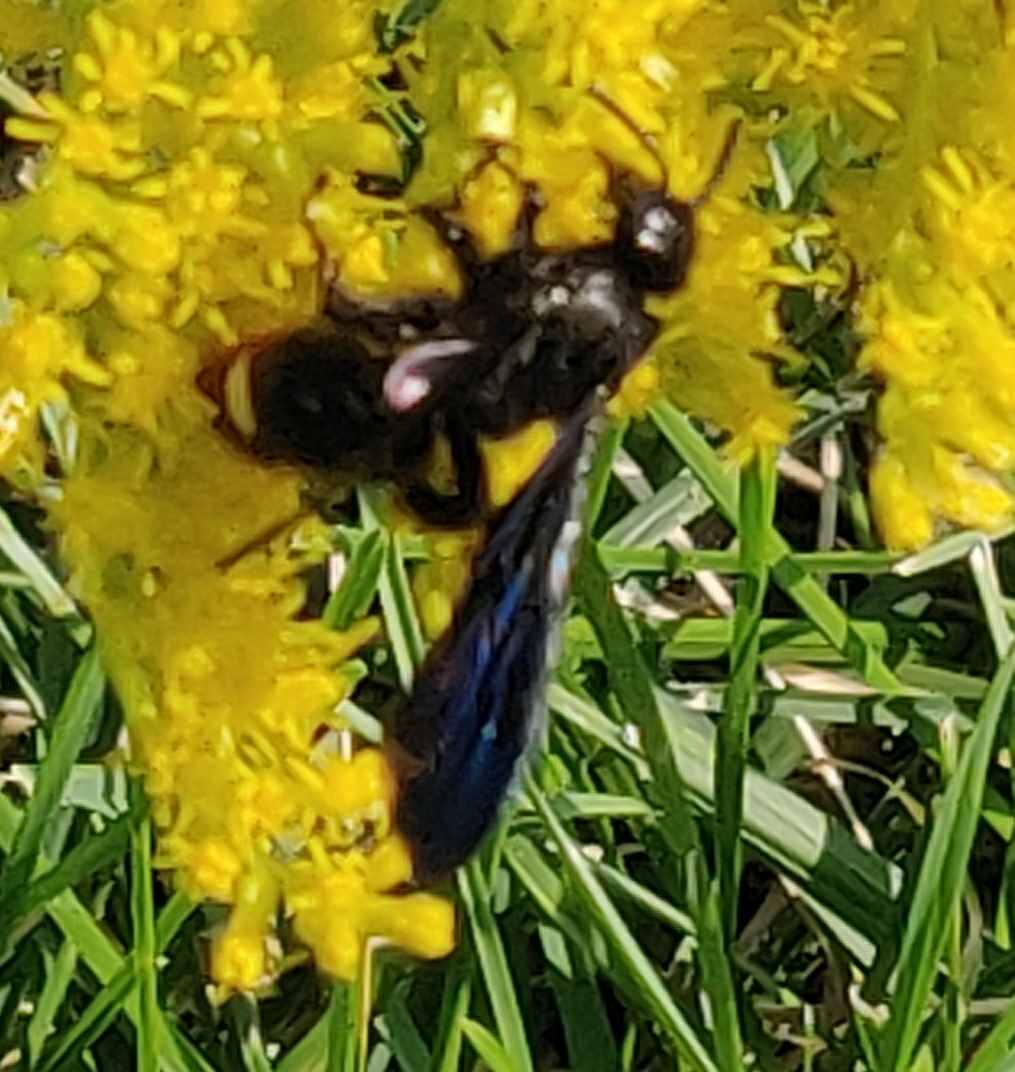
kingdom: Animalia
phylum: Arthropoda
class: Insecta
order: Hymenoptera
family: Scoliidae
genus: Scolia
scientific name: Scolia dubia
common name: Blue-winged scoliid wasp
